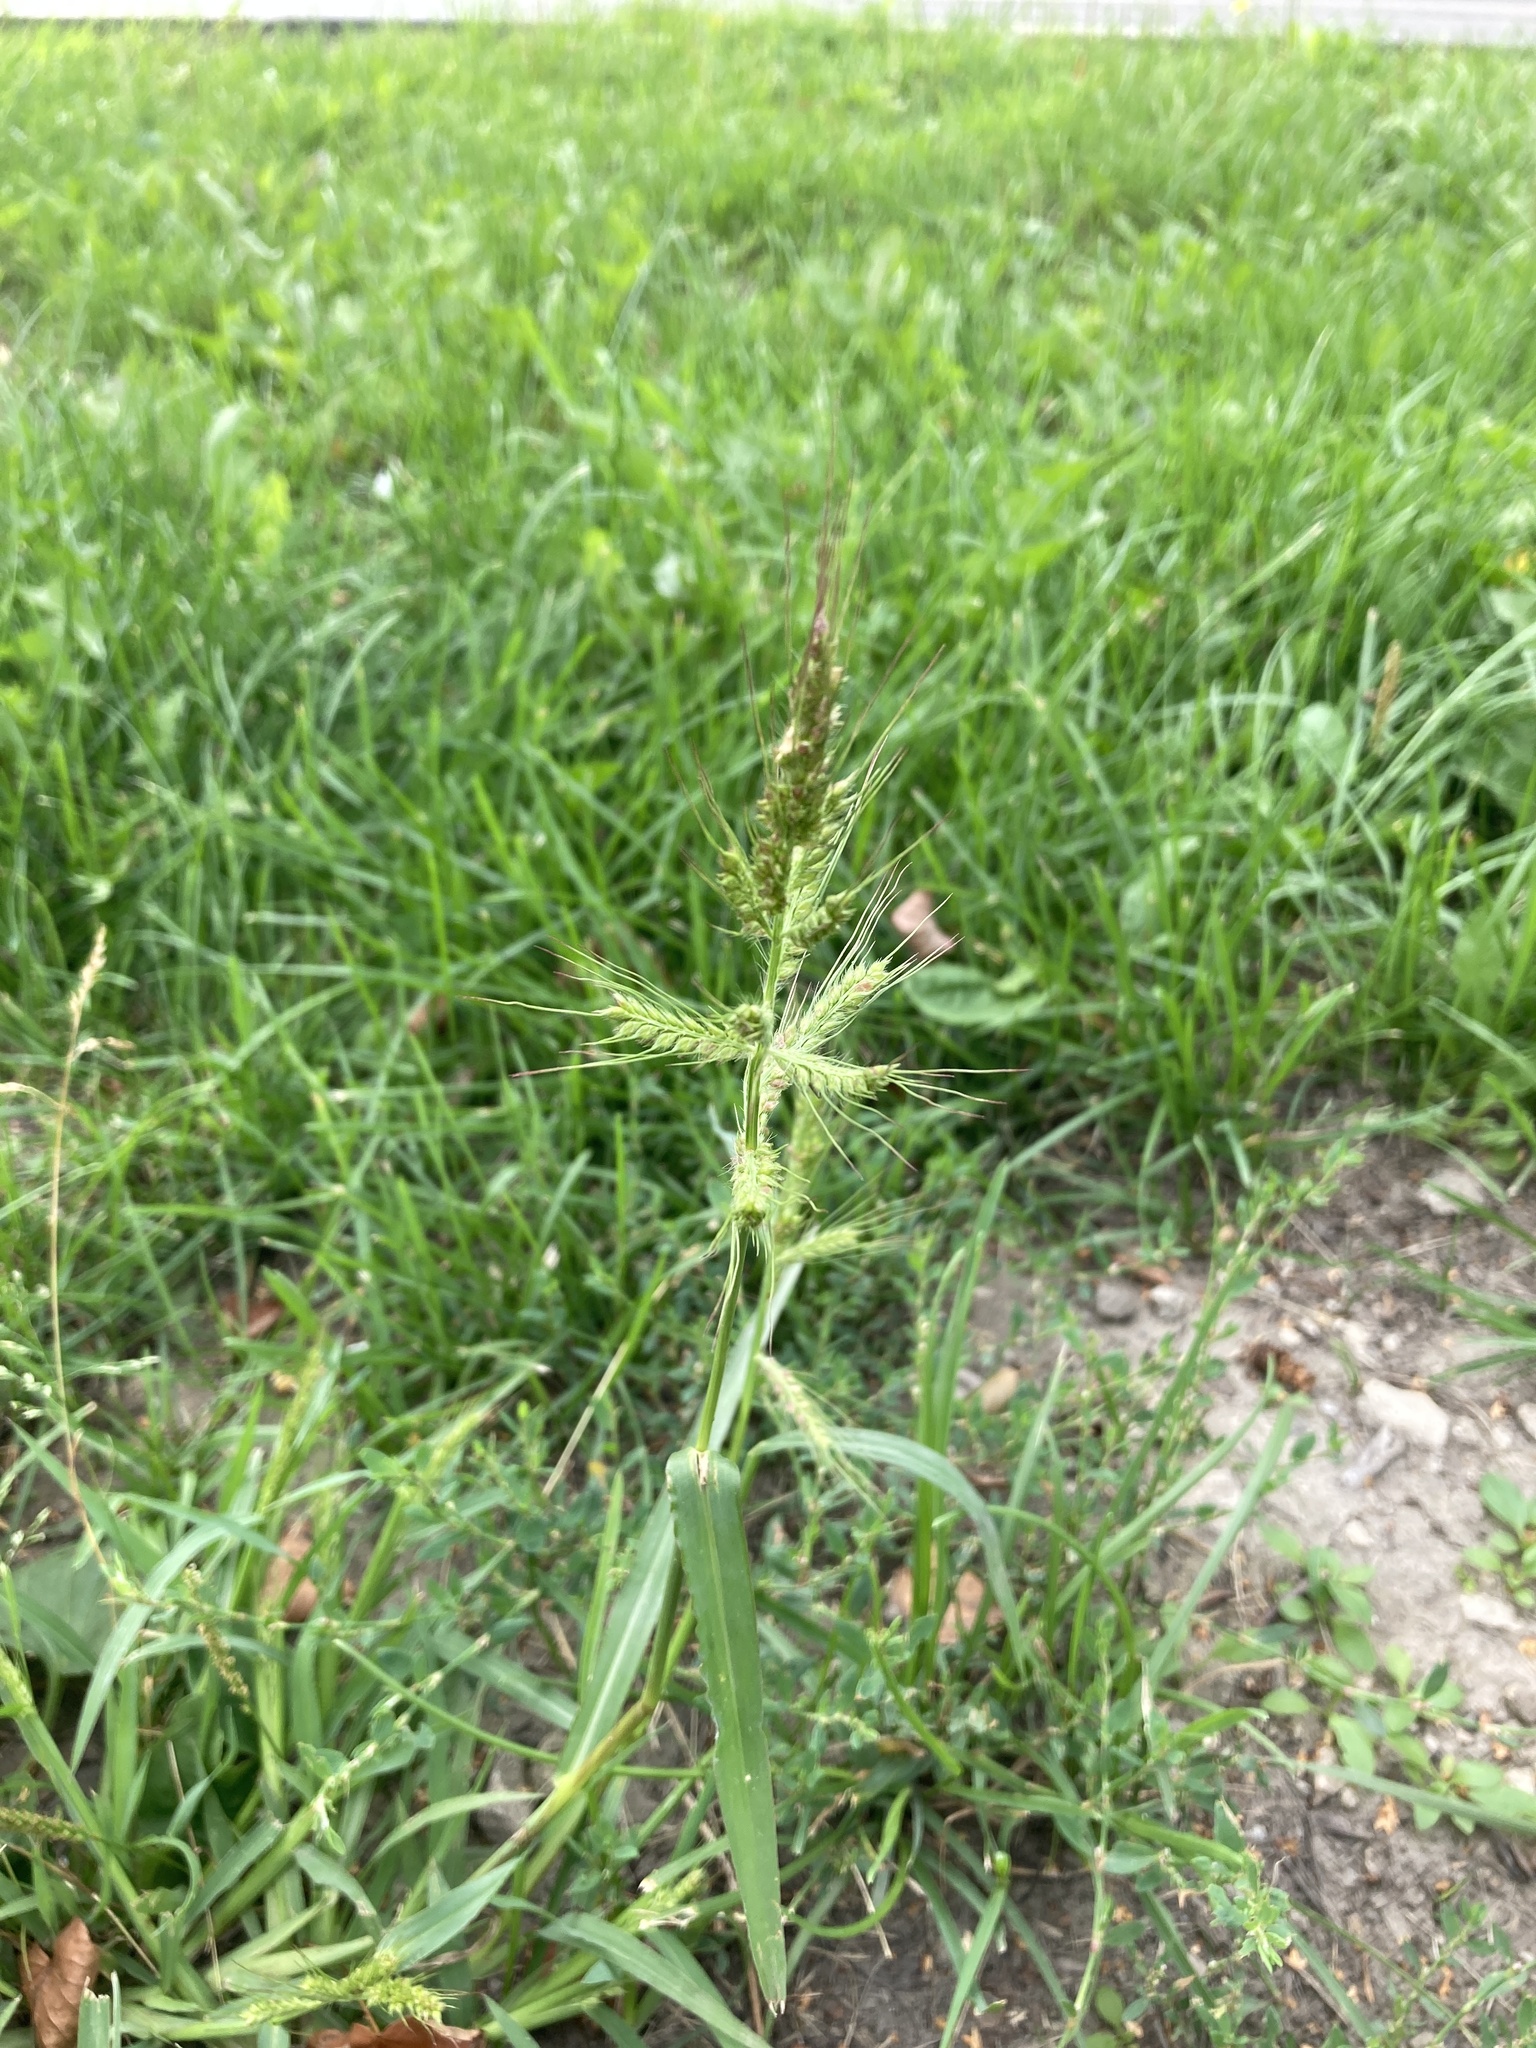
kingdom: Plantae
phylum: Tracheophyta
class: Liliopsida
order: Poales
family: Poaceae
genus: Echinochloa
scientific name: Echinochloa crus-galli
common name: Cockspur
